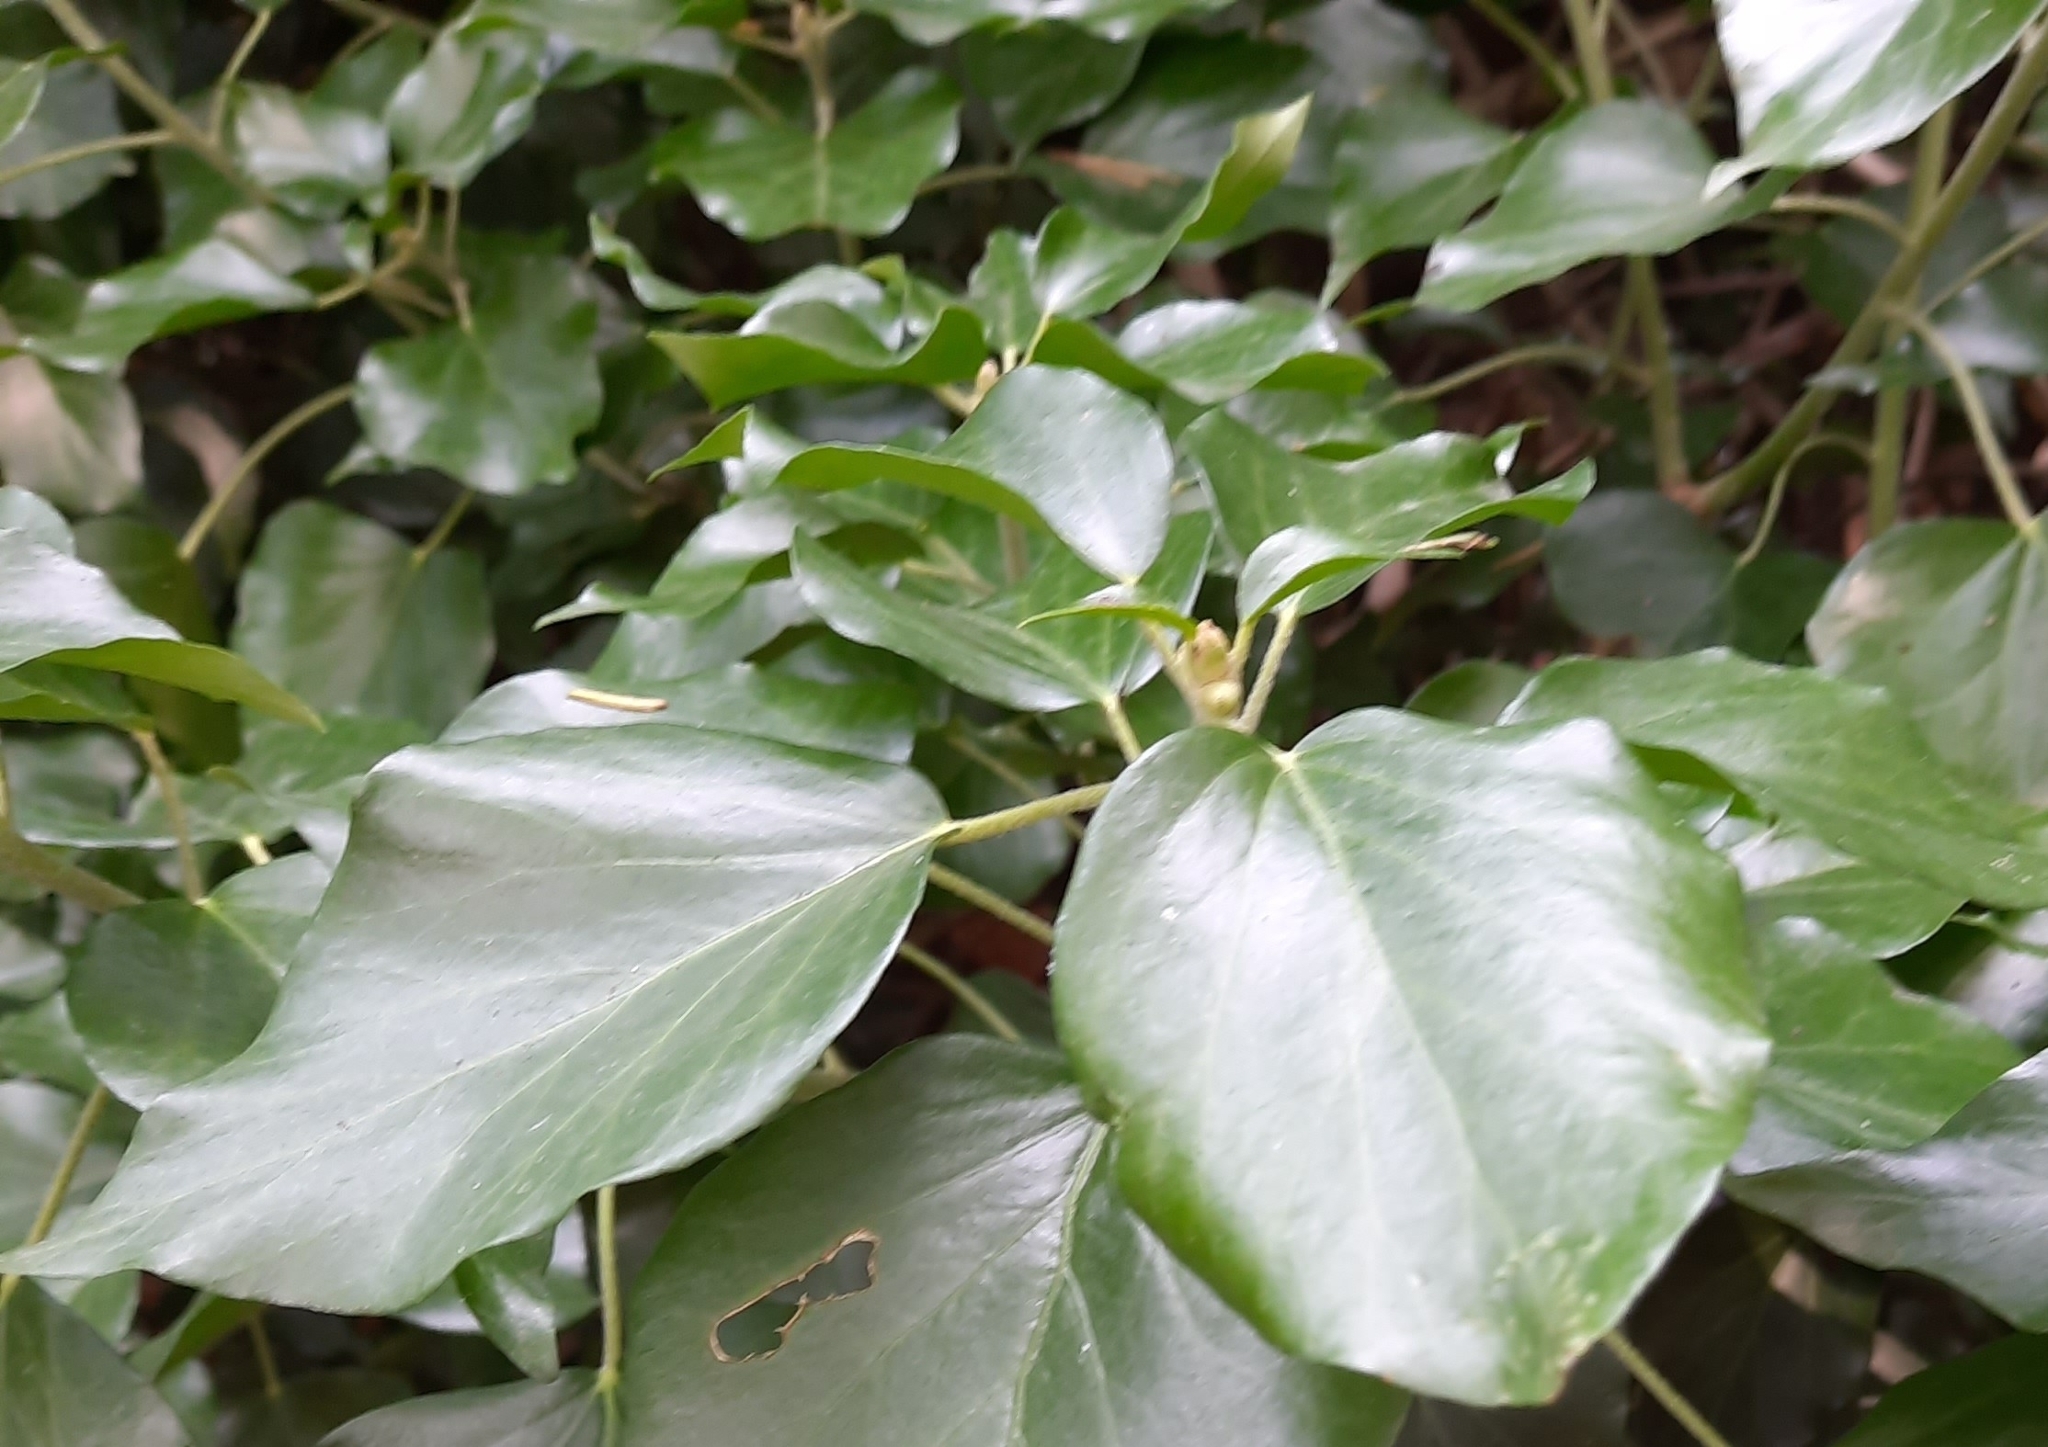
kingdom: Plantae
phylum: Tracheophyta
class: Magnoliopsida
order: Apiales
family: Araliaceae
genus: Hedera
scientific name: Hedera colchica
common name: Persian ivy
